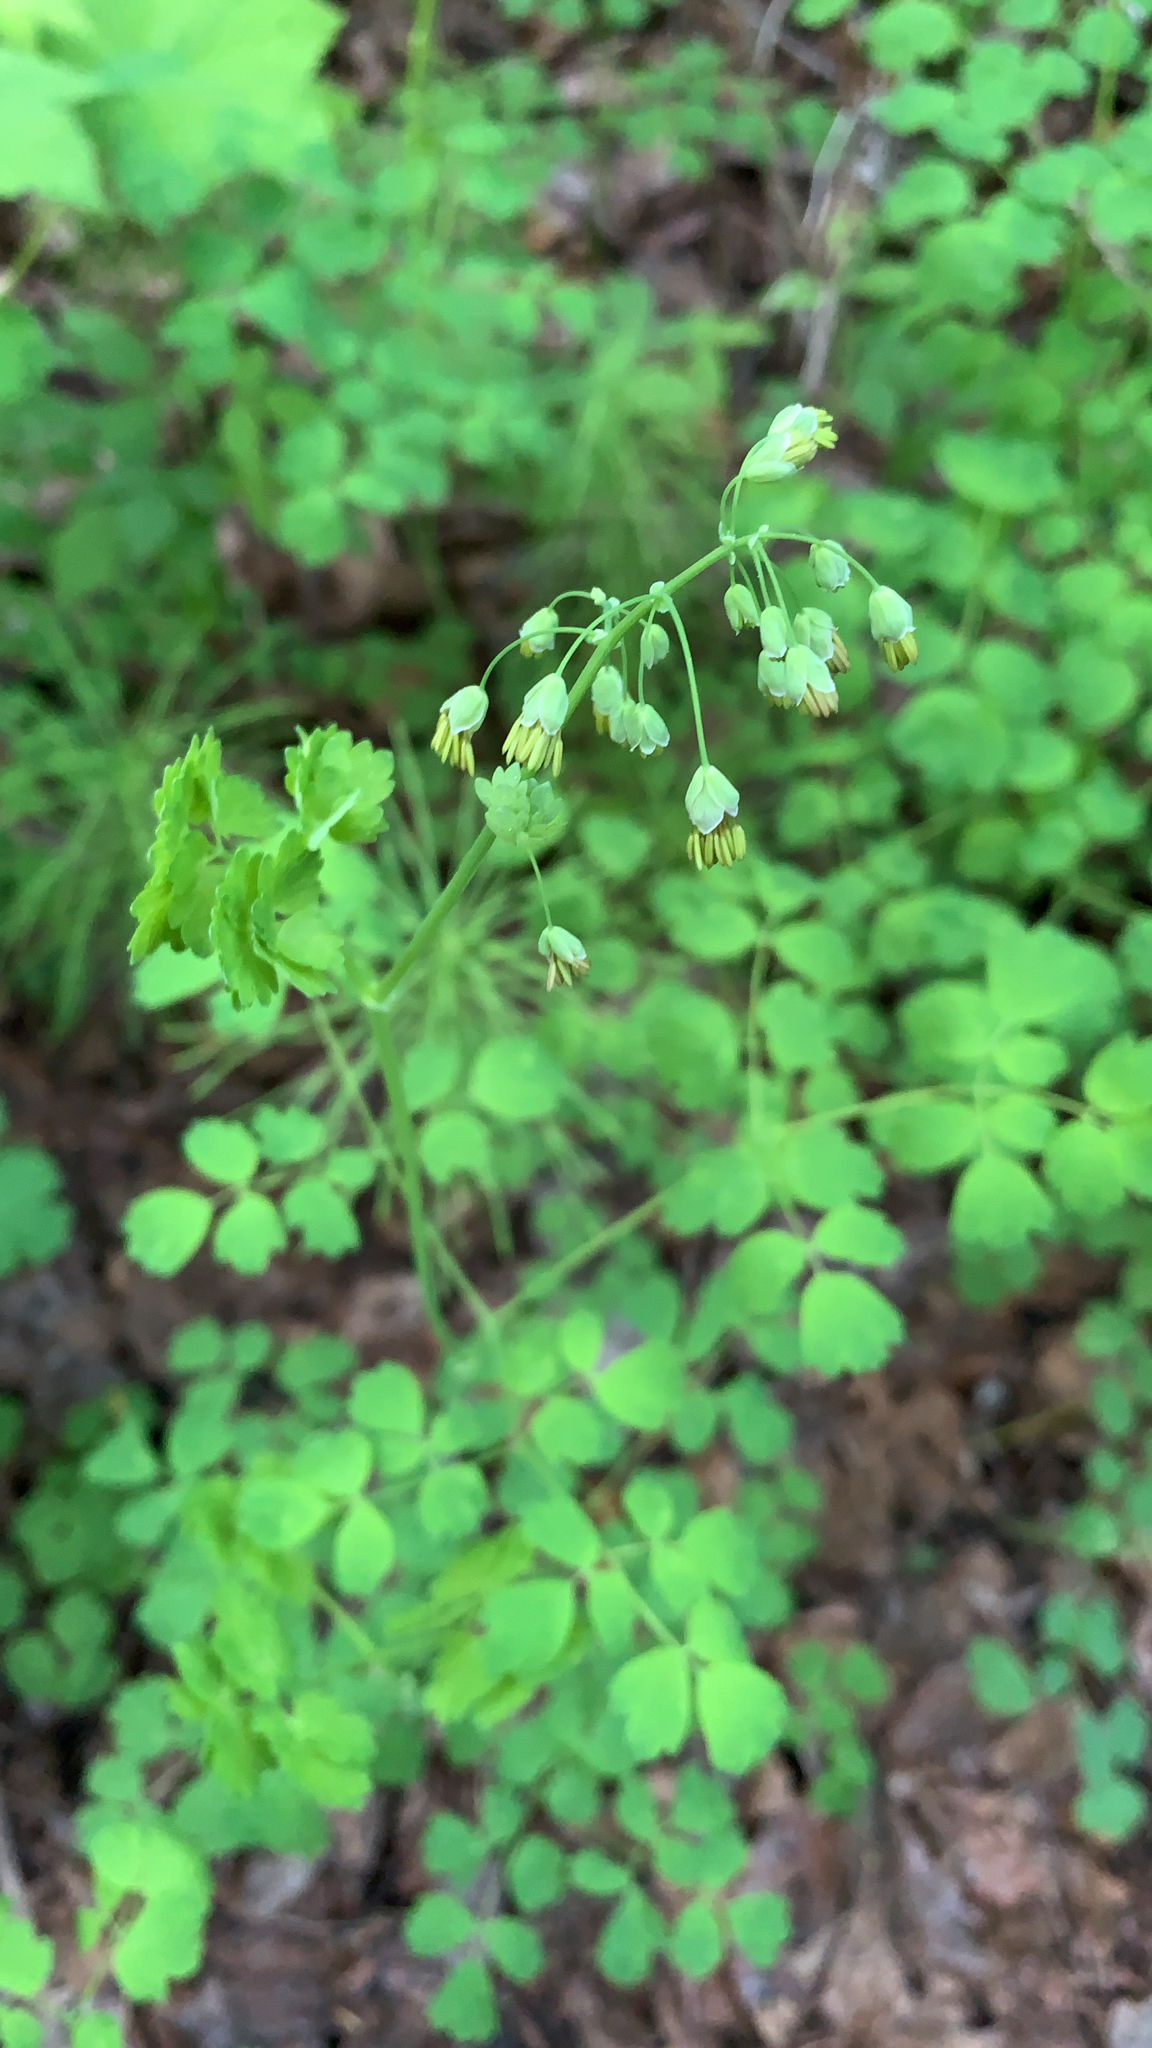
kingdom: Plantae
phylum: Tracheophyta
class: Magnoliopsida
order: Ranunculales
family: Ranunculaceae
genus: Thalictrum
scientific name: Thalictrum occidentale
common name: Western meadow-rue
